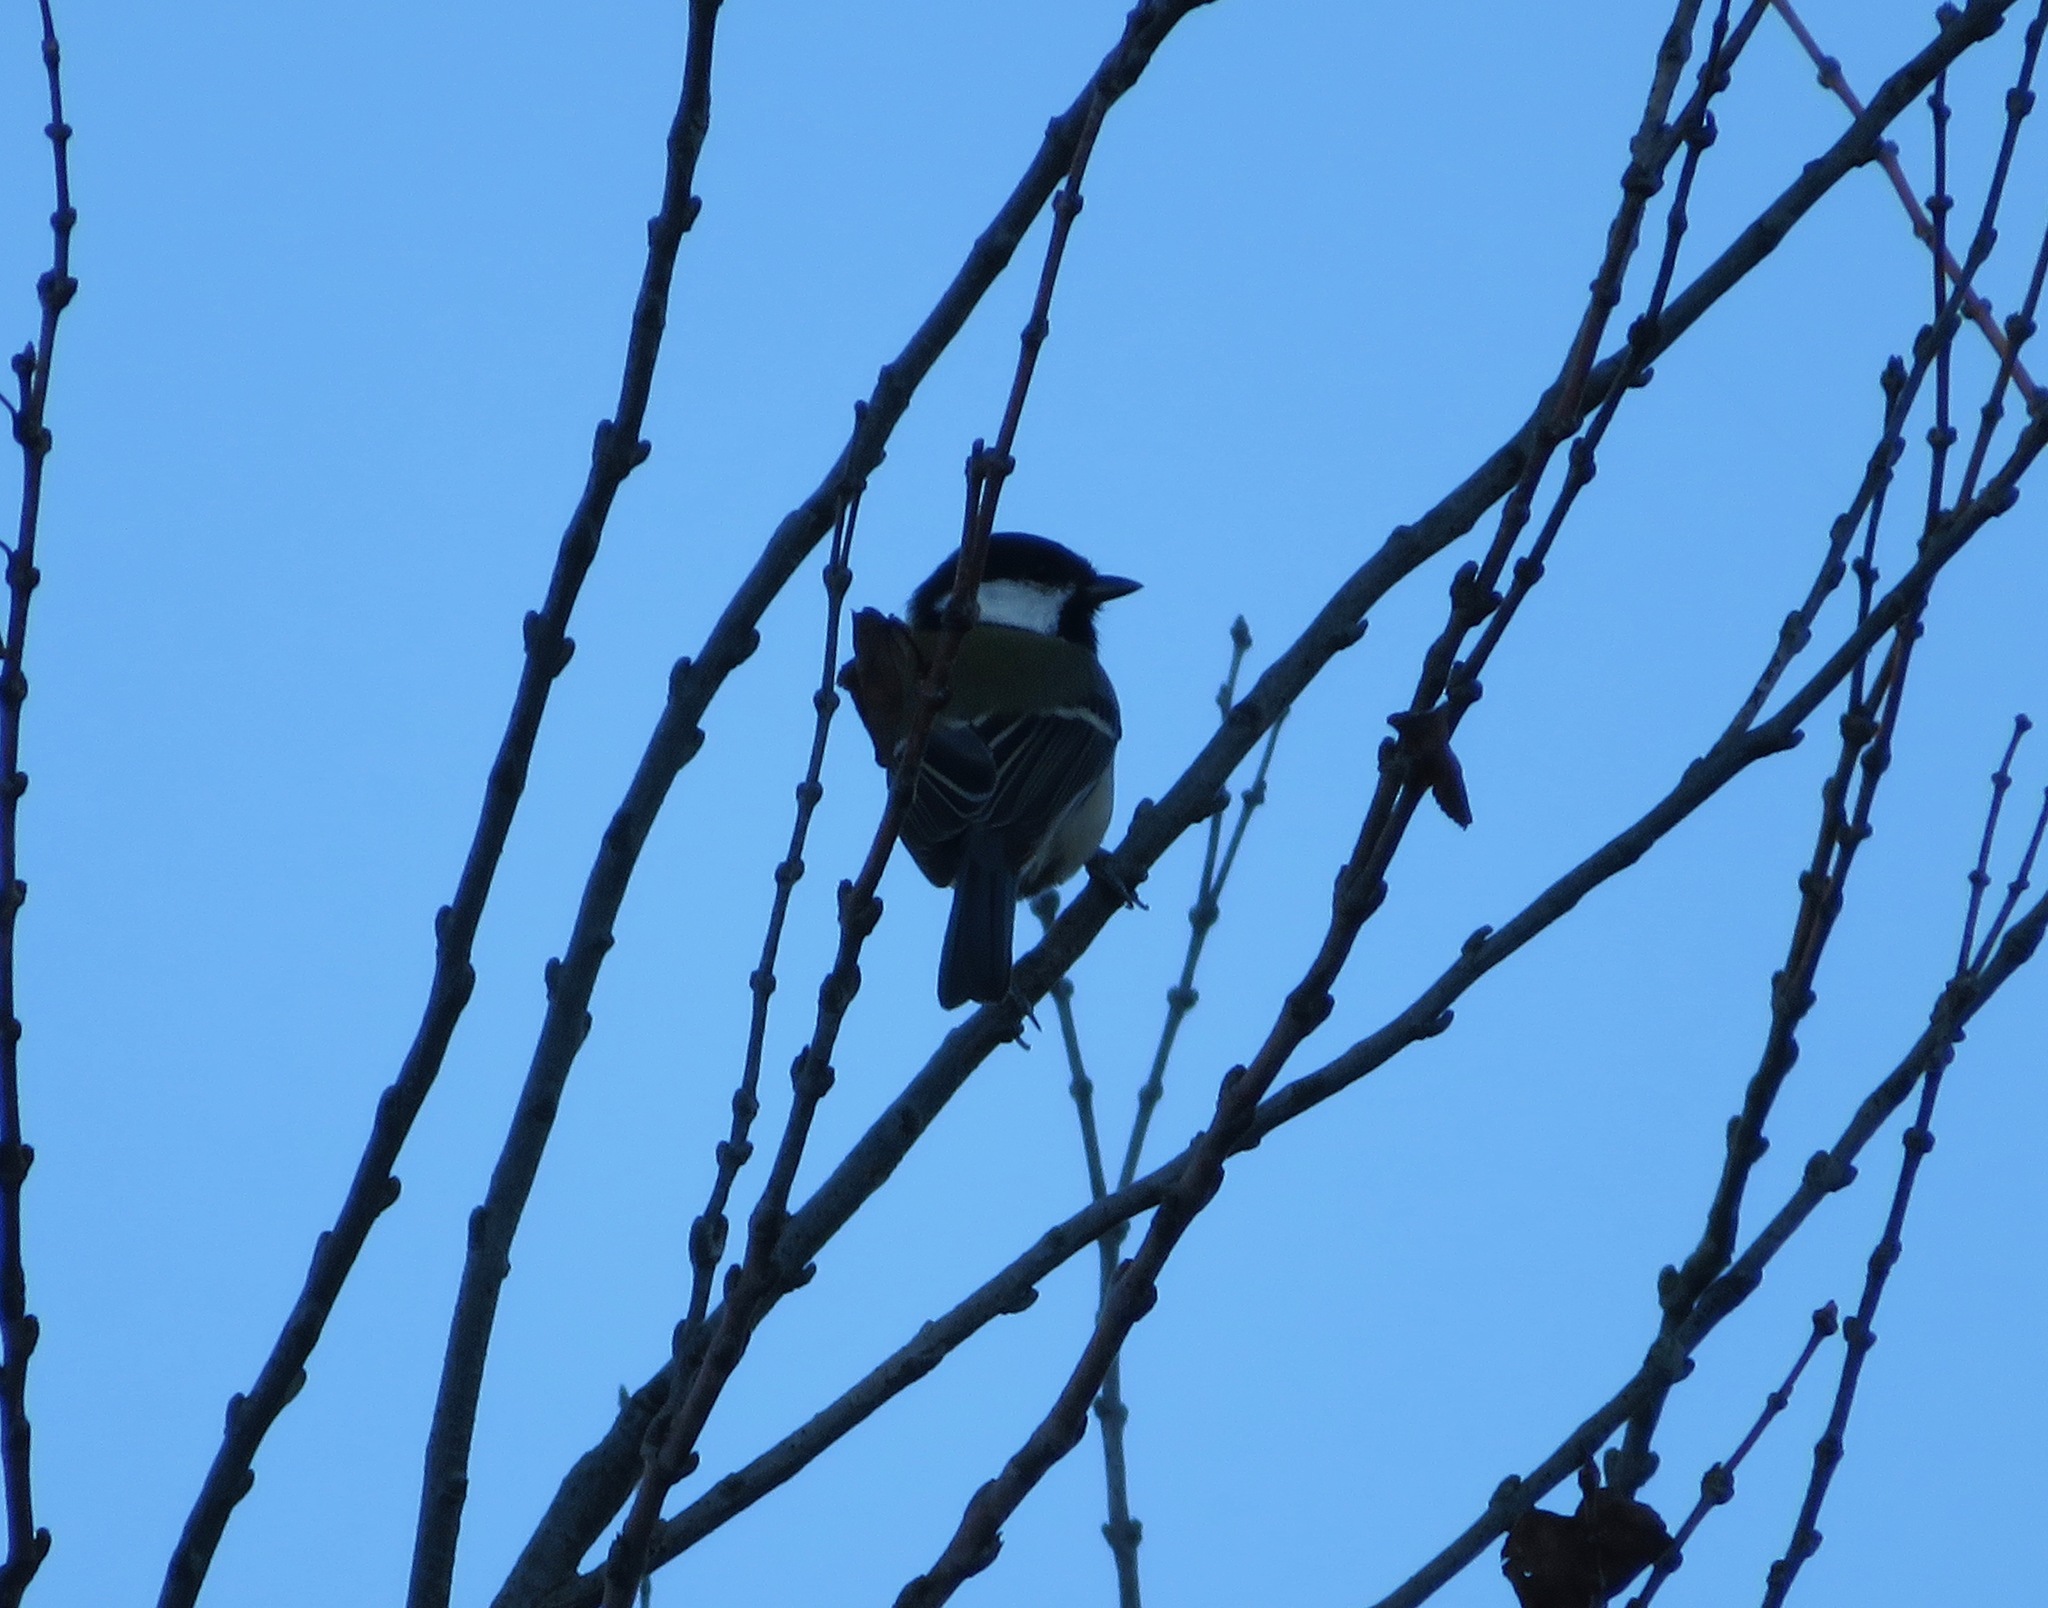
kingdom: Animalia
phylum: Chordata
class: Aves
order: Passeriformes
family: Paridae
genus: Parus
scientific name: Parus minor
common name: Japanese tit
